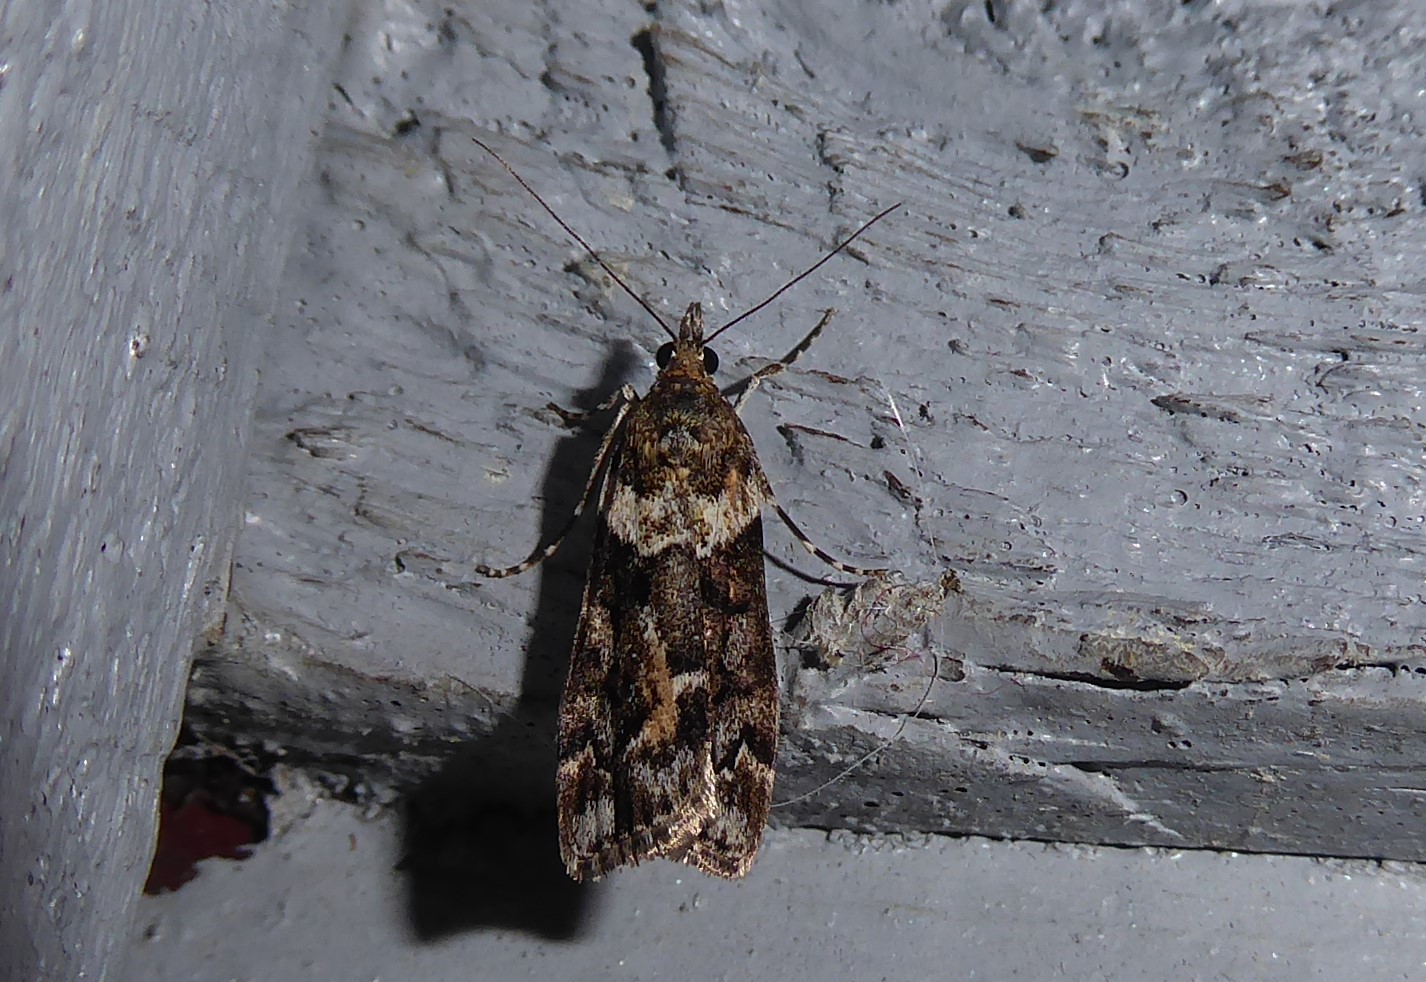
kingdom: Animalia
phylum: Arthropoda
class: Insecta
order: Lepidoptera
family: Crambidae
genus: Eudonia
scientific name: Eudonia submarginalis
